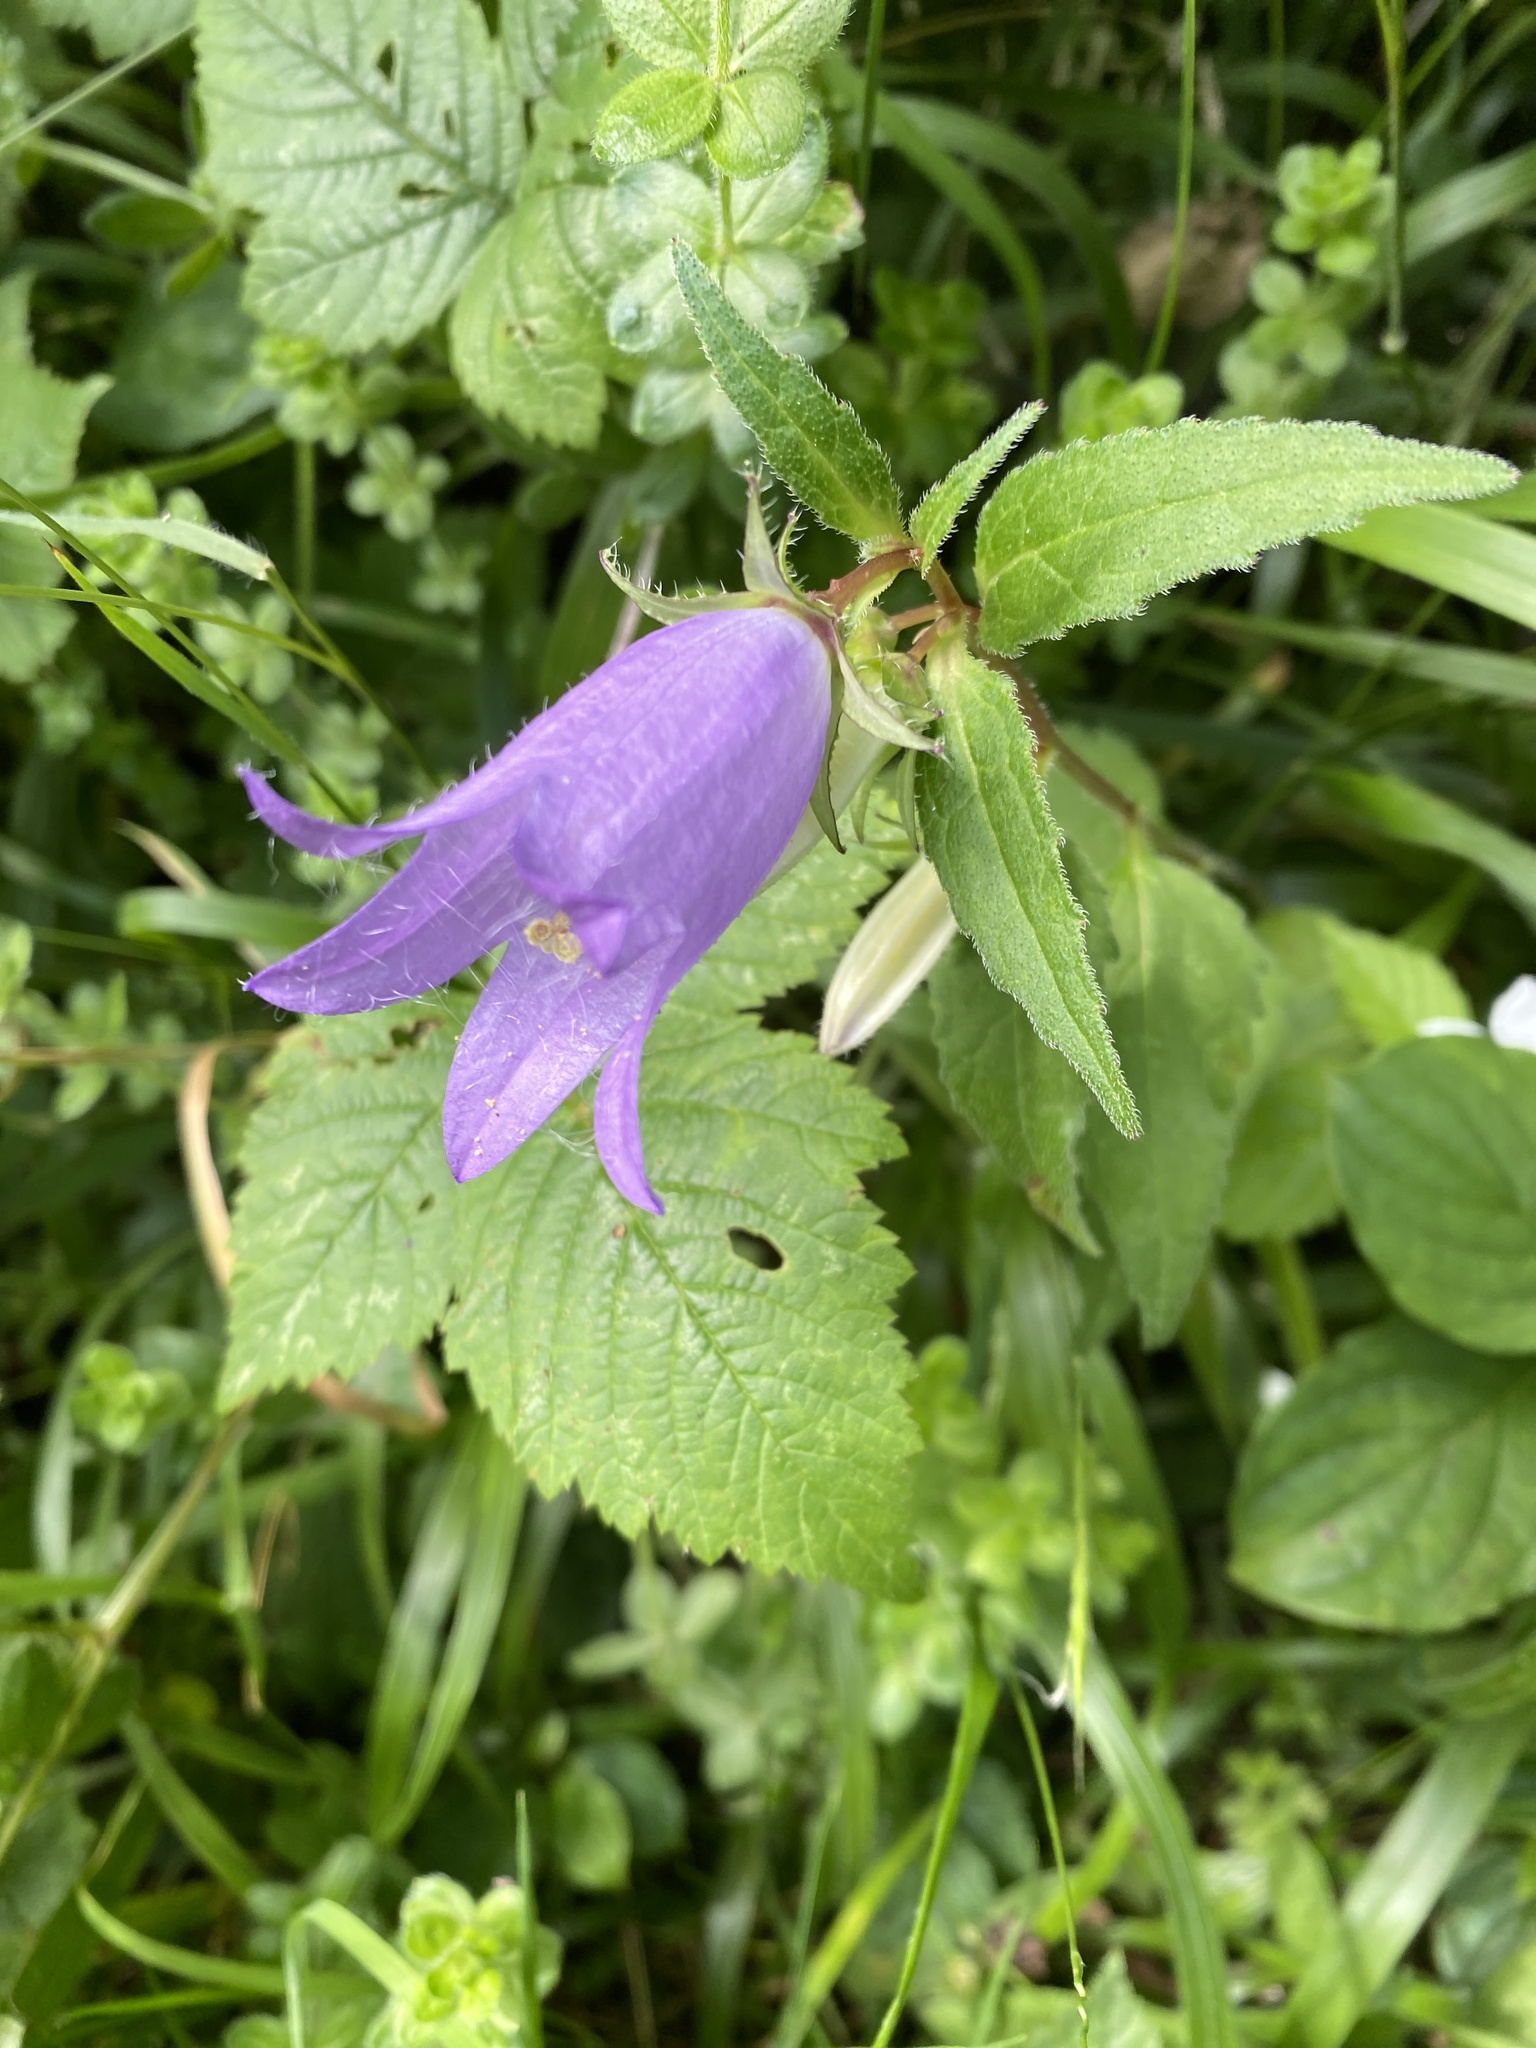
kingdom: Plantae
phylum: Tracheophyta
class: Magnoliopsida
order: Asterales
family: Campanulaceae
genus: Campanula
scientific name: Campanula trachelium
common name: Nettle-leaved bellflower
